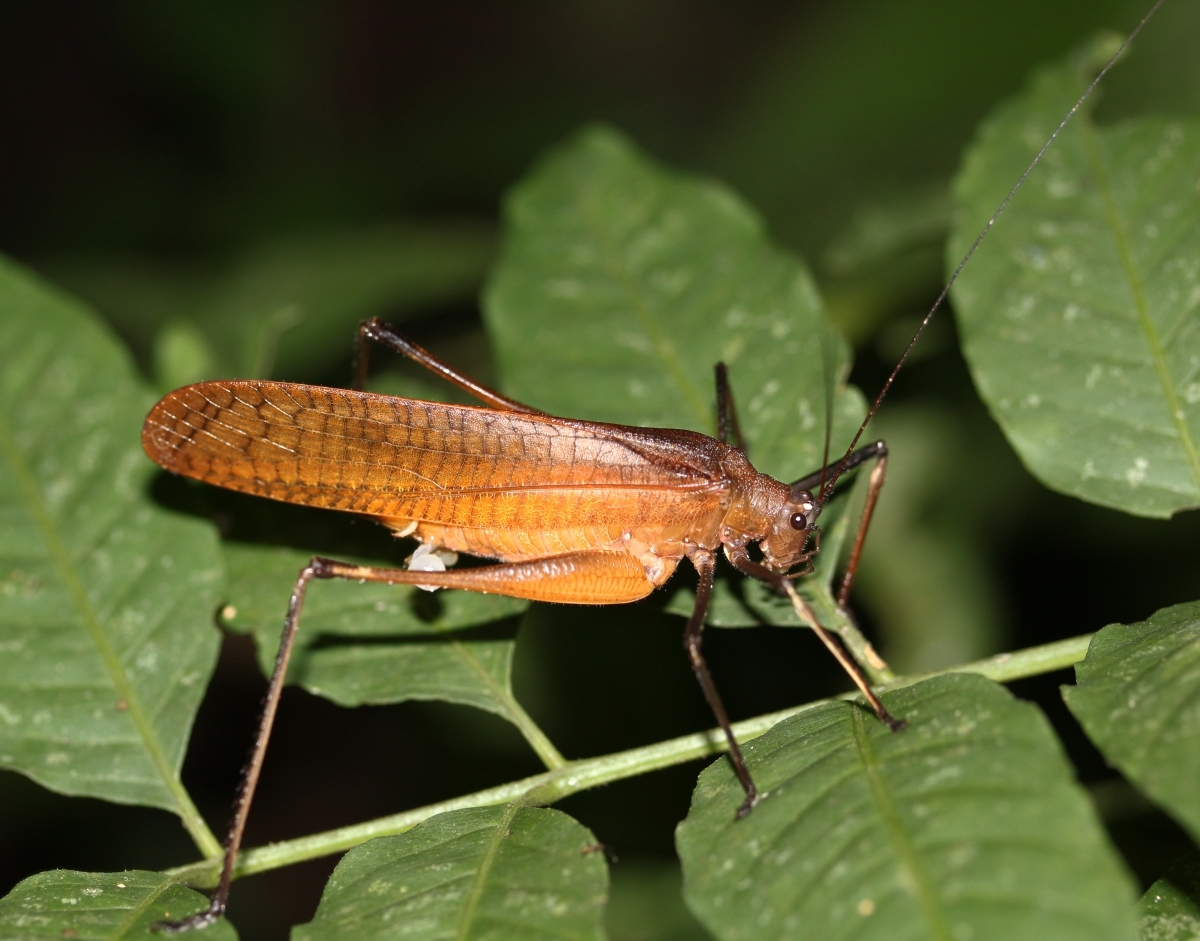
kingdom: Animalia
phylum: Arthropoda
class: Insecta
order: Orthoptera
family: Tettigoniidae
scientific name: Tettigoniidae
